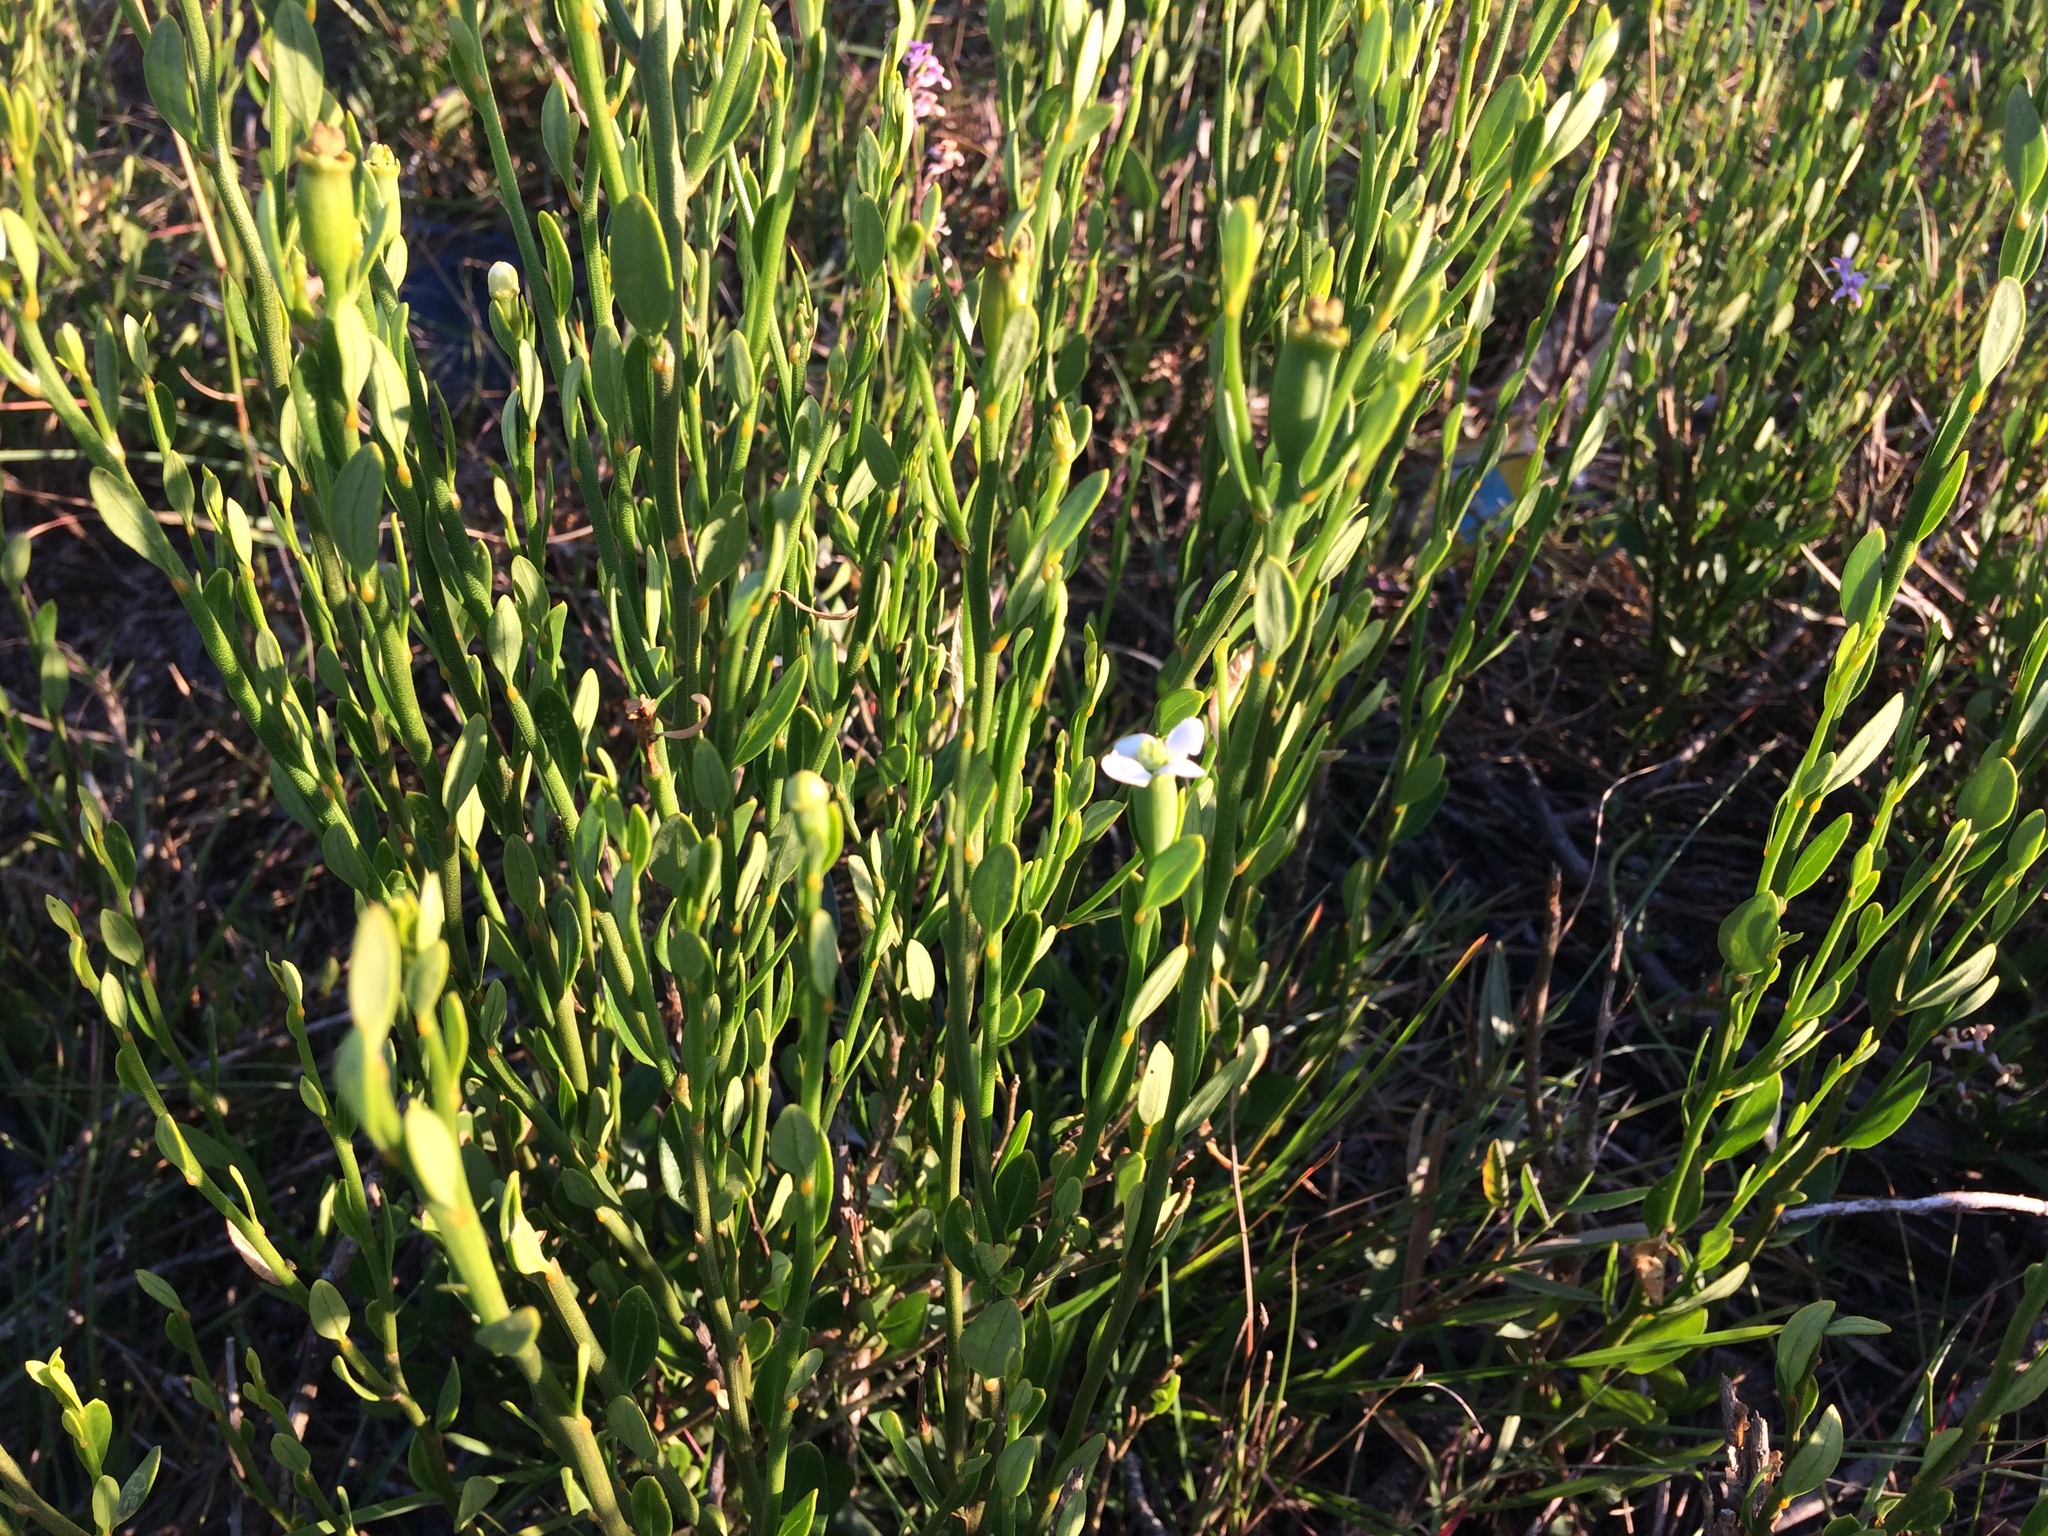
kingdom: Plantae
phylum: Tracheophyta
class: Magnoliopsida
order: Solanales
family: Montiniaceae
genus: Montinia
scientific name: Montinia caryophyllacea
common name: Wild clove-bush
